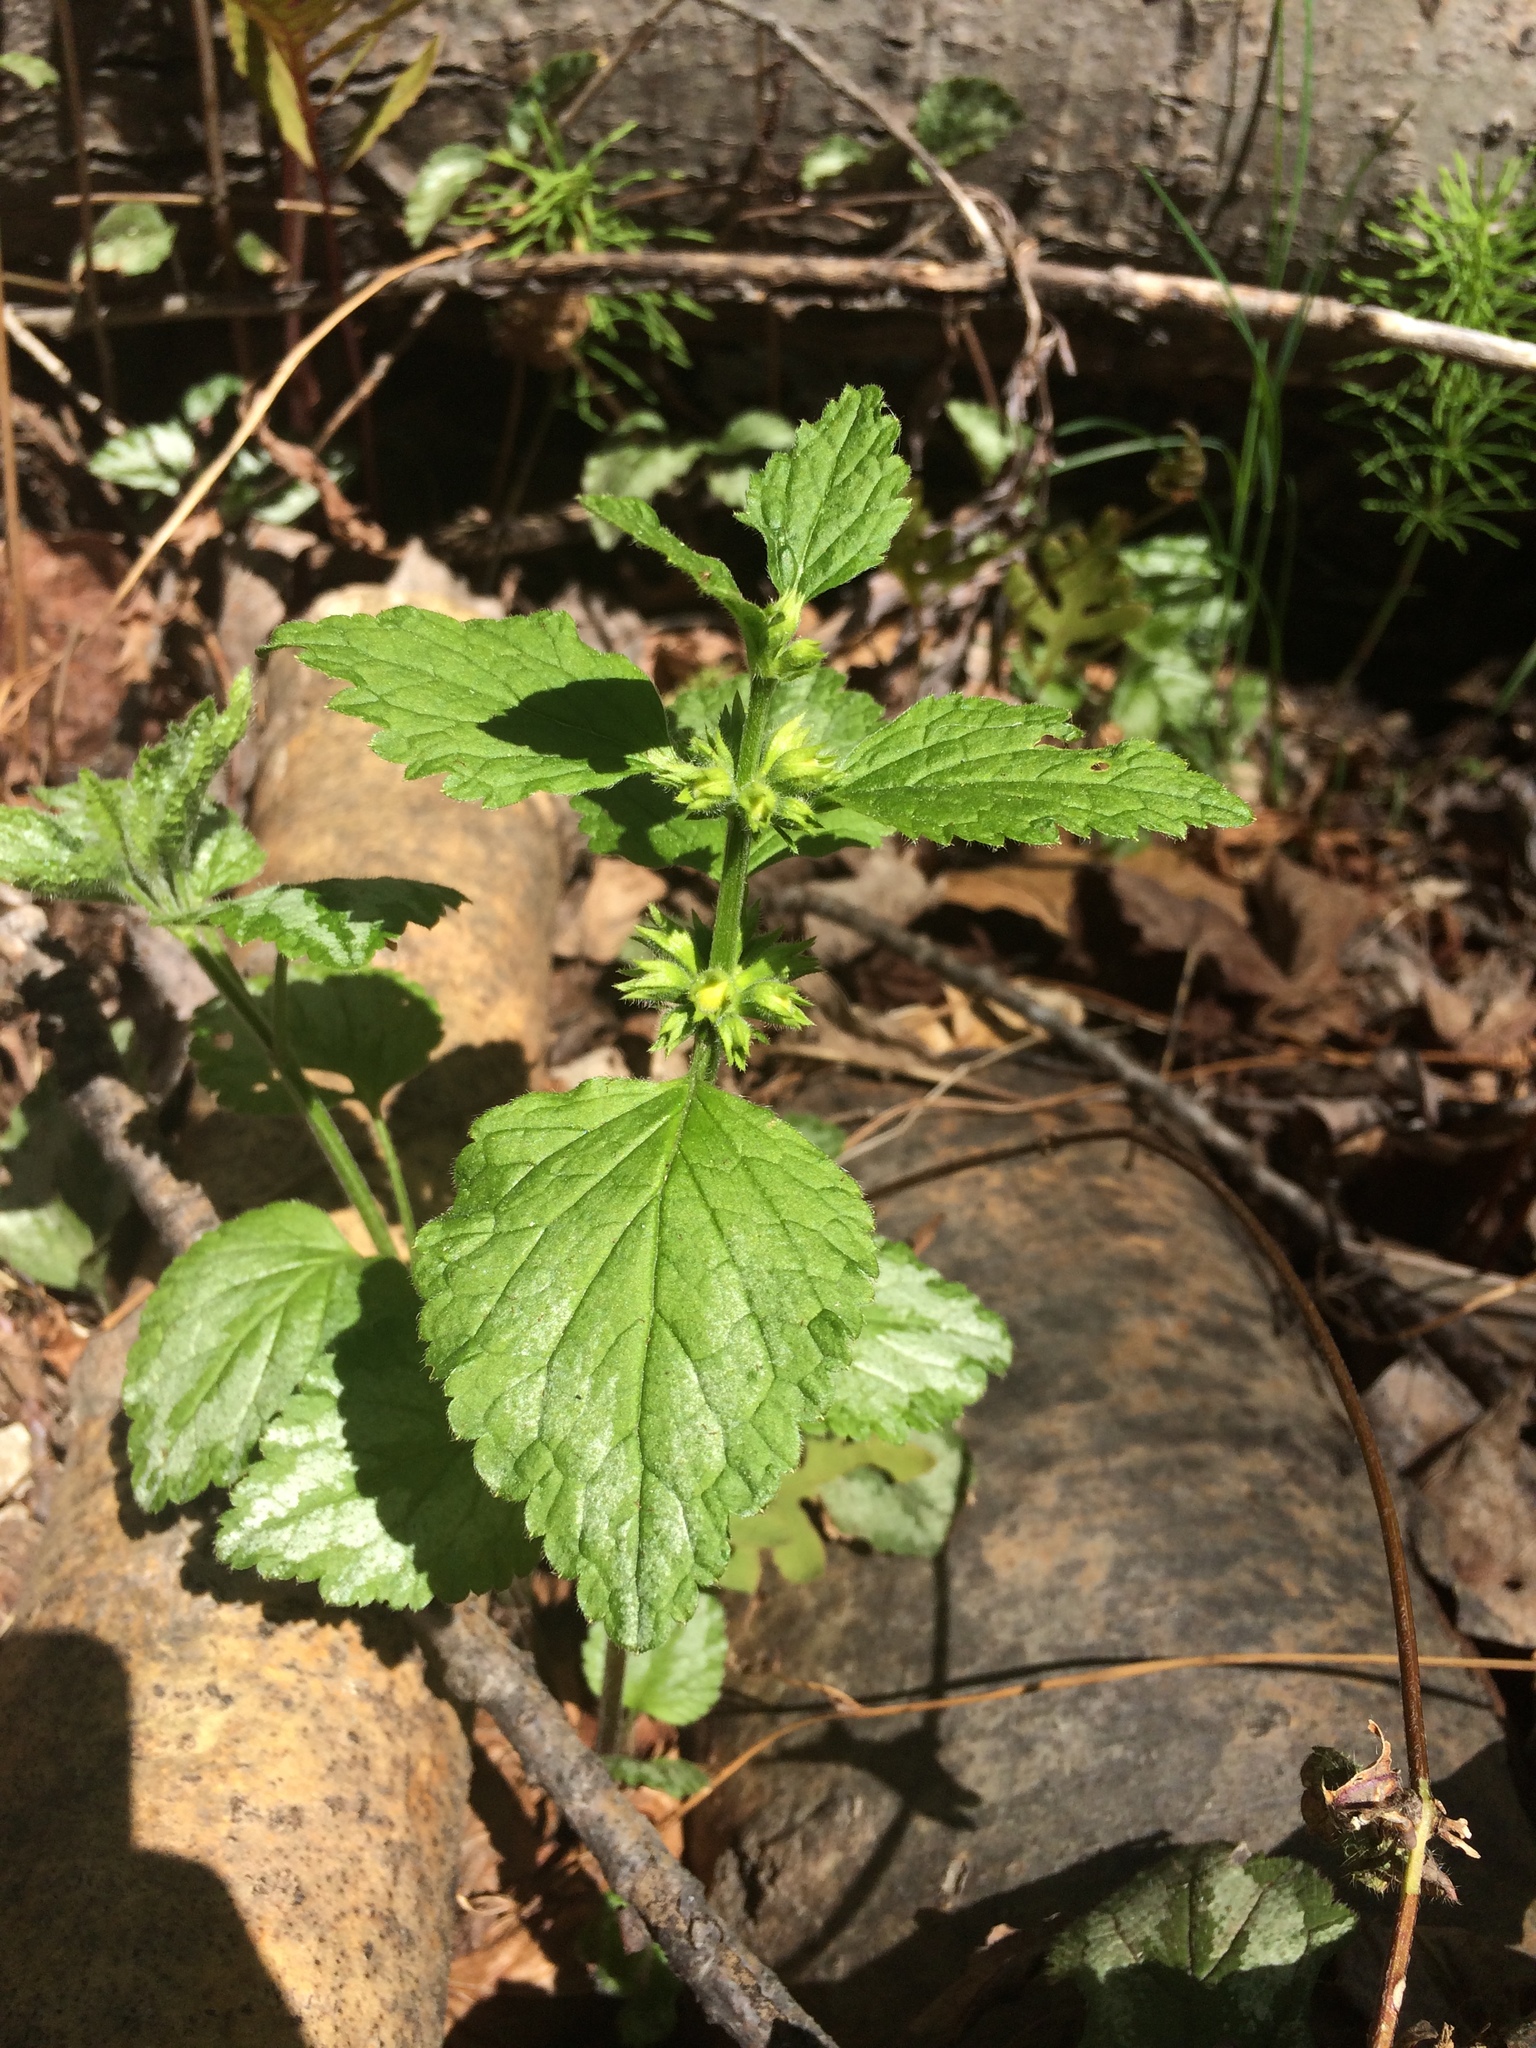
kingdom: Plantae
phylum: Tracheophyta
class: Magnoliopsida
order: Lamiales
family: Lamiaceae
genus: Lamium
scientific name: Lamium galeobdolon
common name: Yellow archangel
